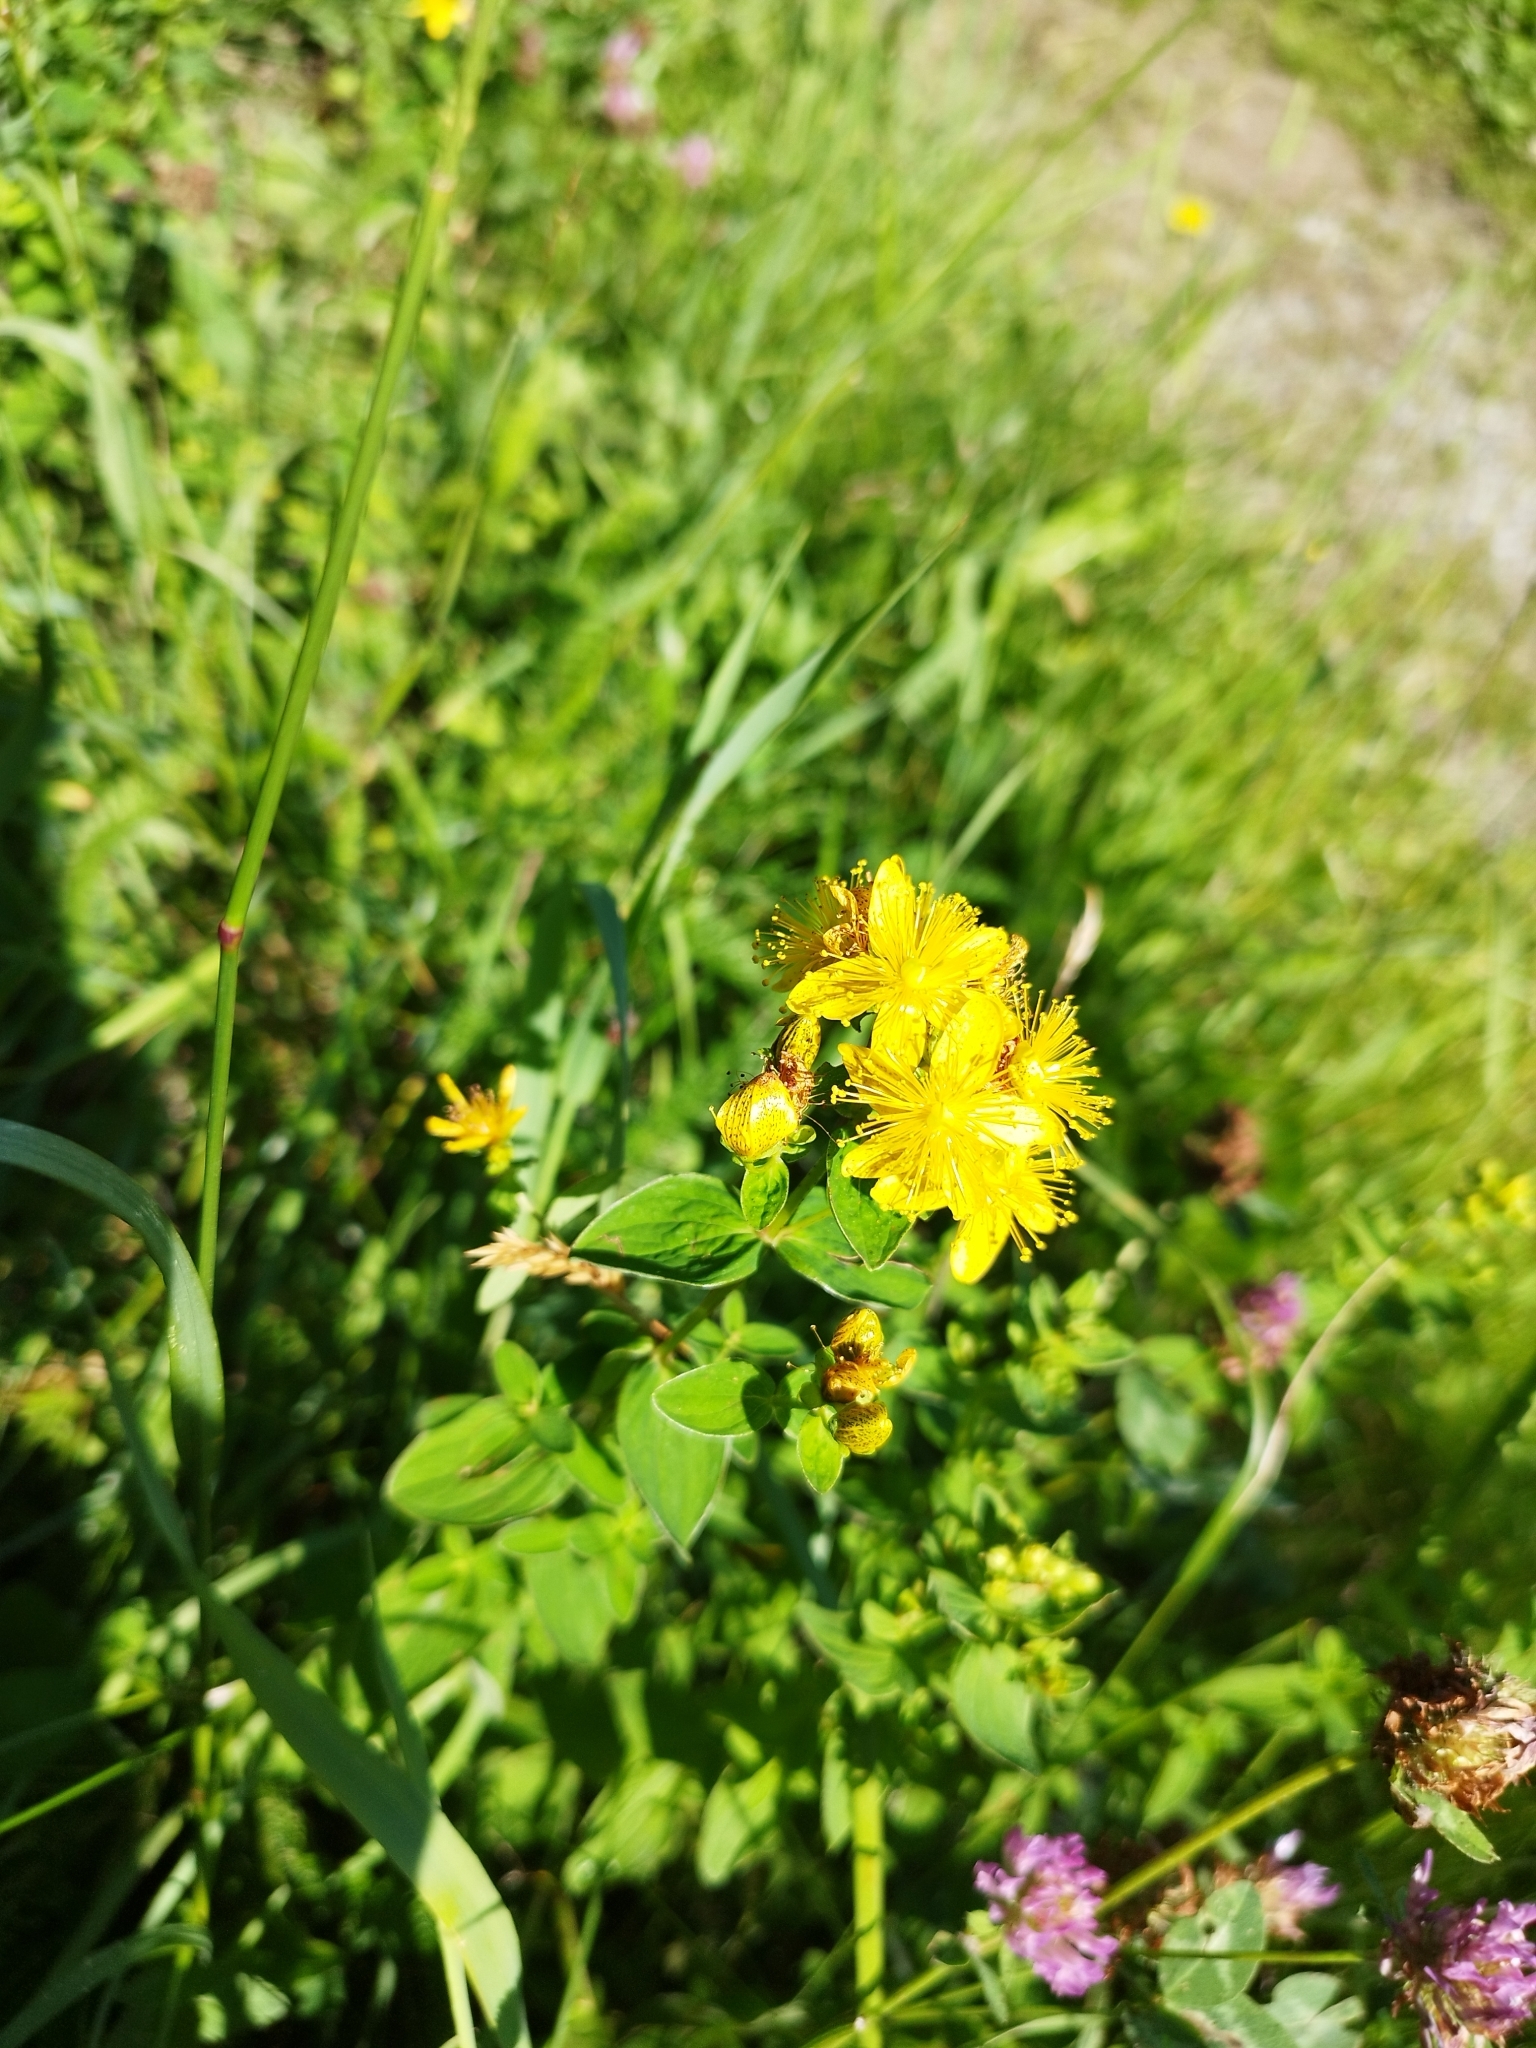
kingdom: Plantae
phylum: Tracheophyta
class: Magnoliopsida
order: Malpighiales
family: Hypericaceae
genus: Hypericum
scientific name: Hypericum maculatum
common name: Imperforate st. john's-wort
